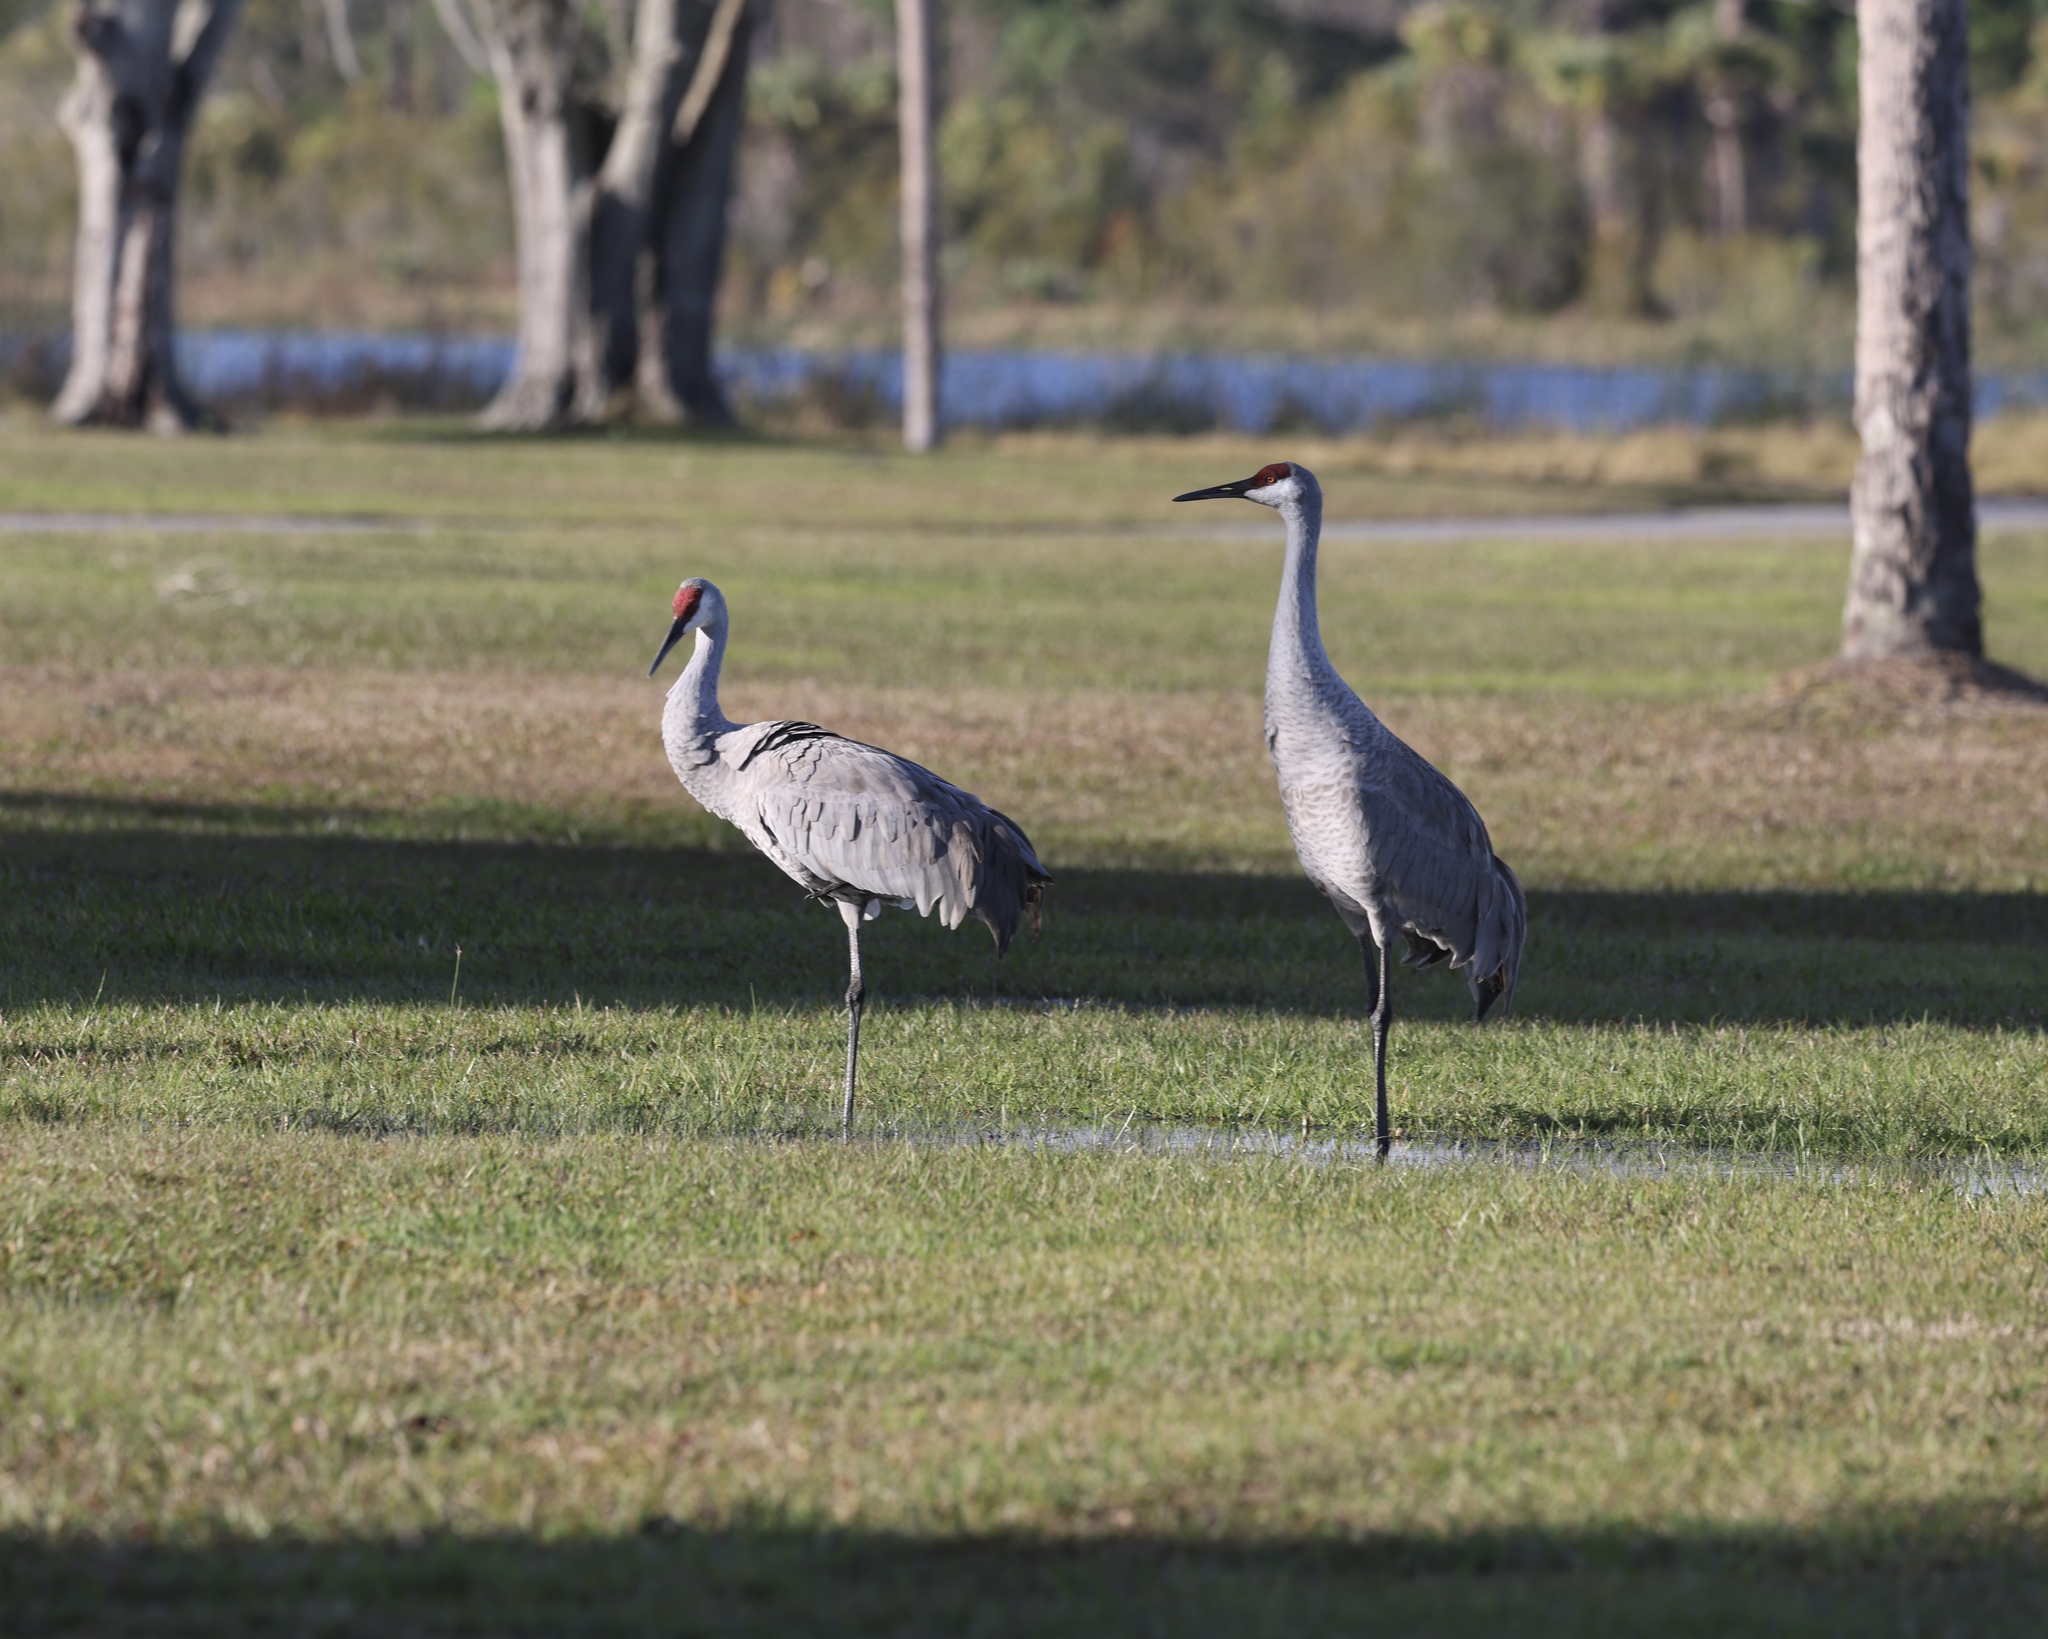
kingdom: Animalia
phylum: Chordata
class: Aves
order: Gruiformes
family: Gruidae
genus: Grus
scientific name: Grus canadensis
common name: Sandhill crane
